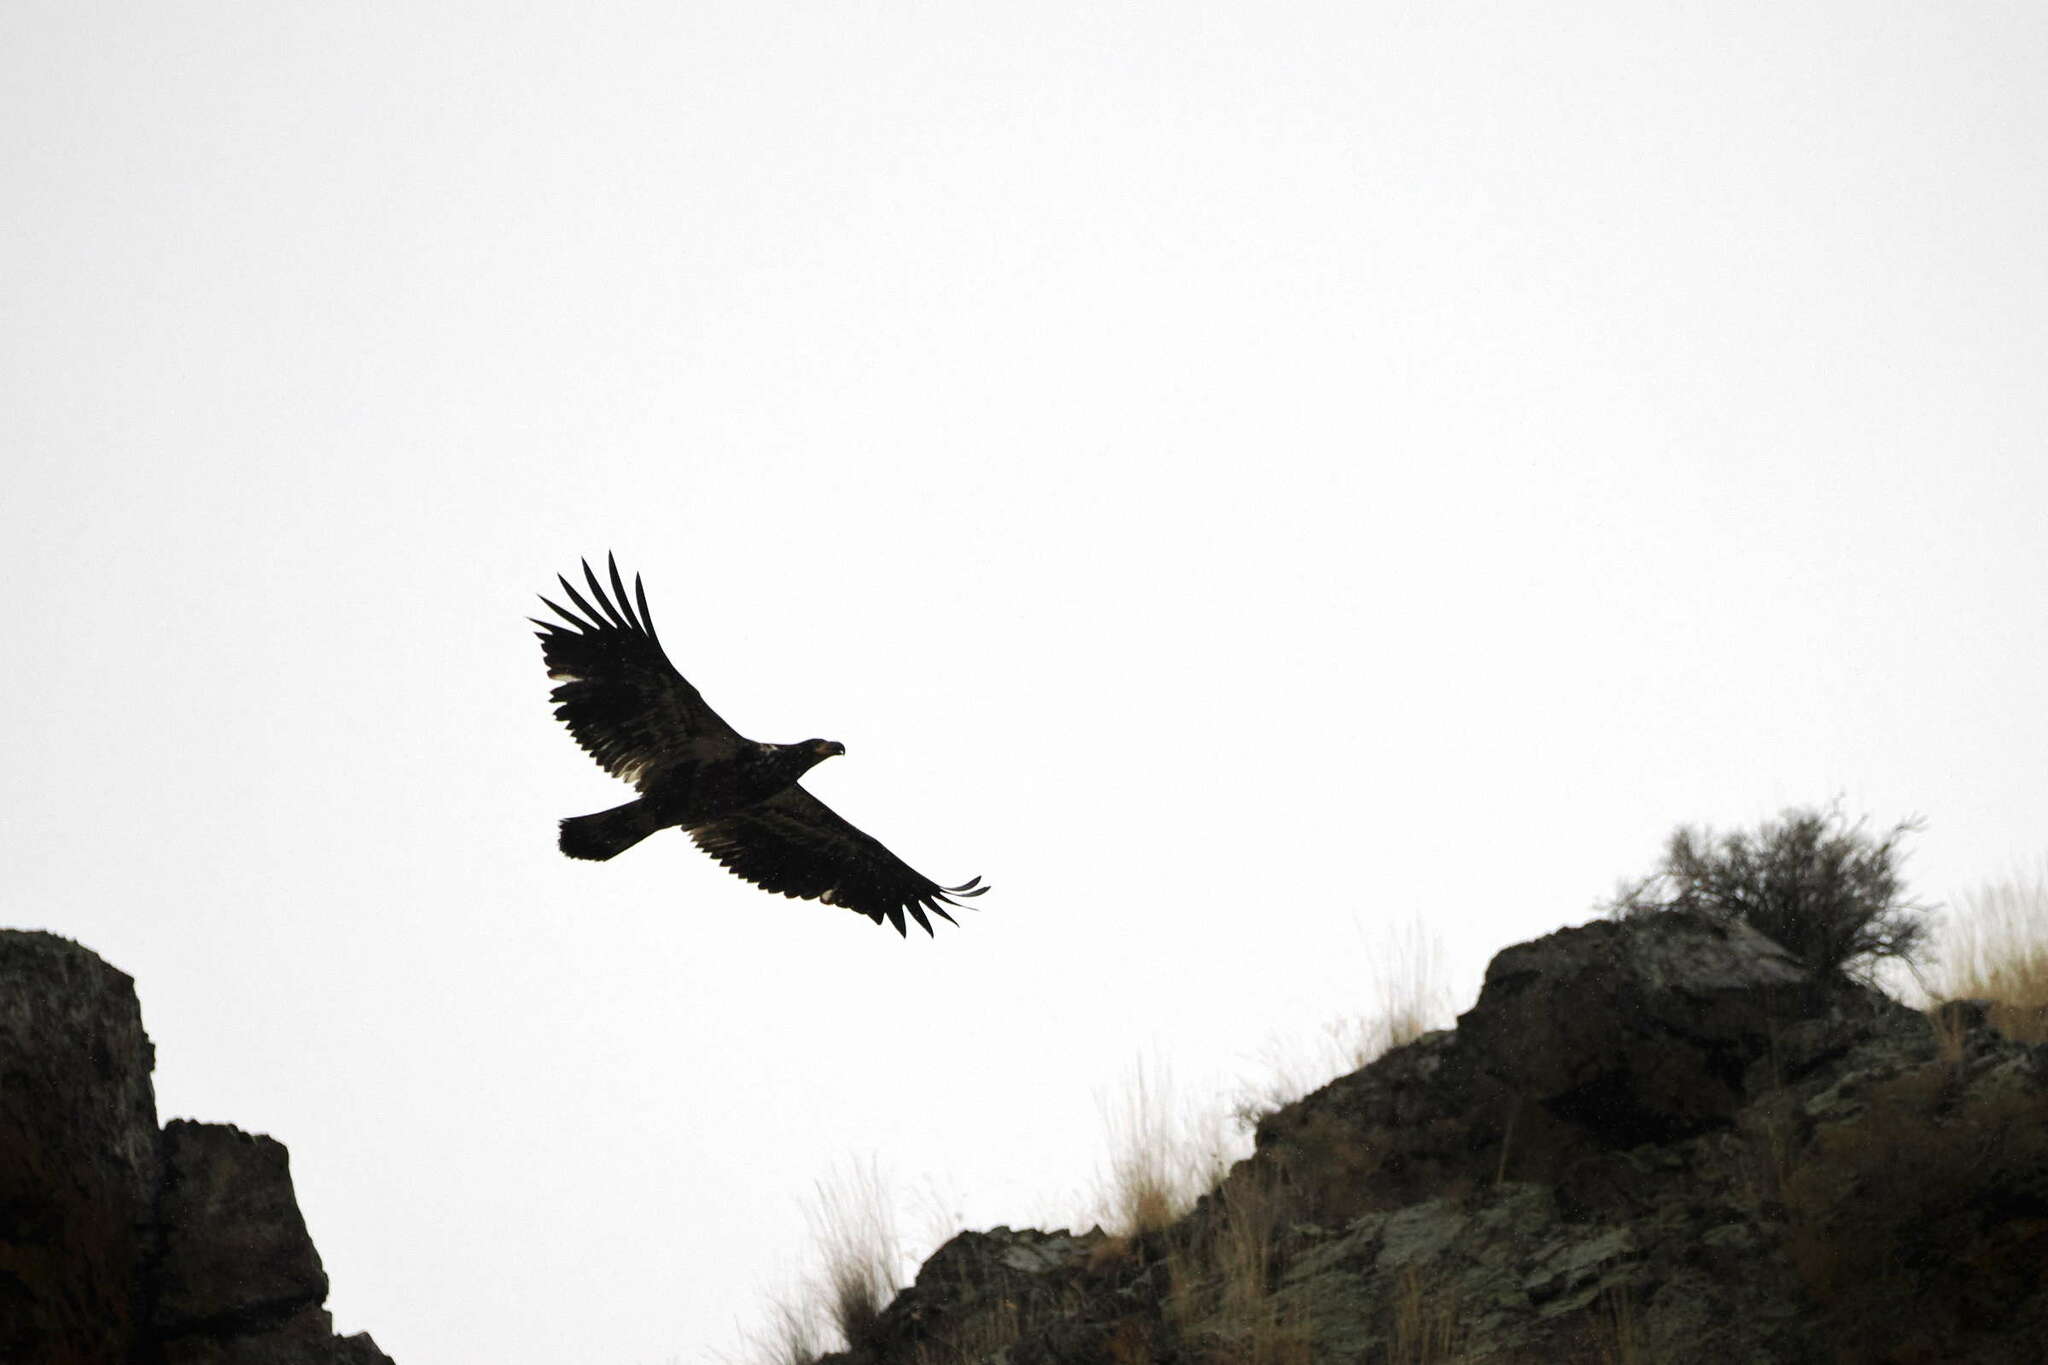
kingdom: Animalia
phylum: Chordata
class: Aves
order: Accipitriformes
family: Accipitridae
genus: Haliaeetus
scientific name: Haliaeetus leucocephalus
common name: Bald eagle
